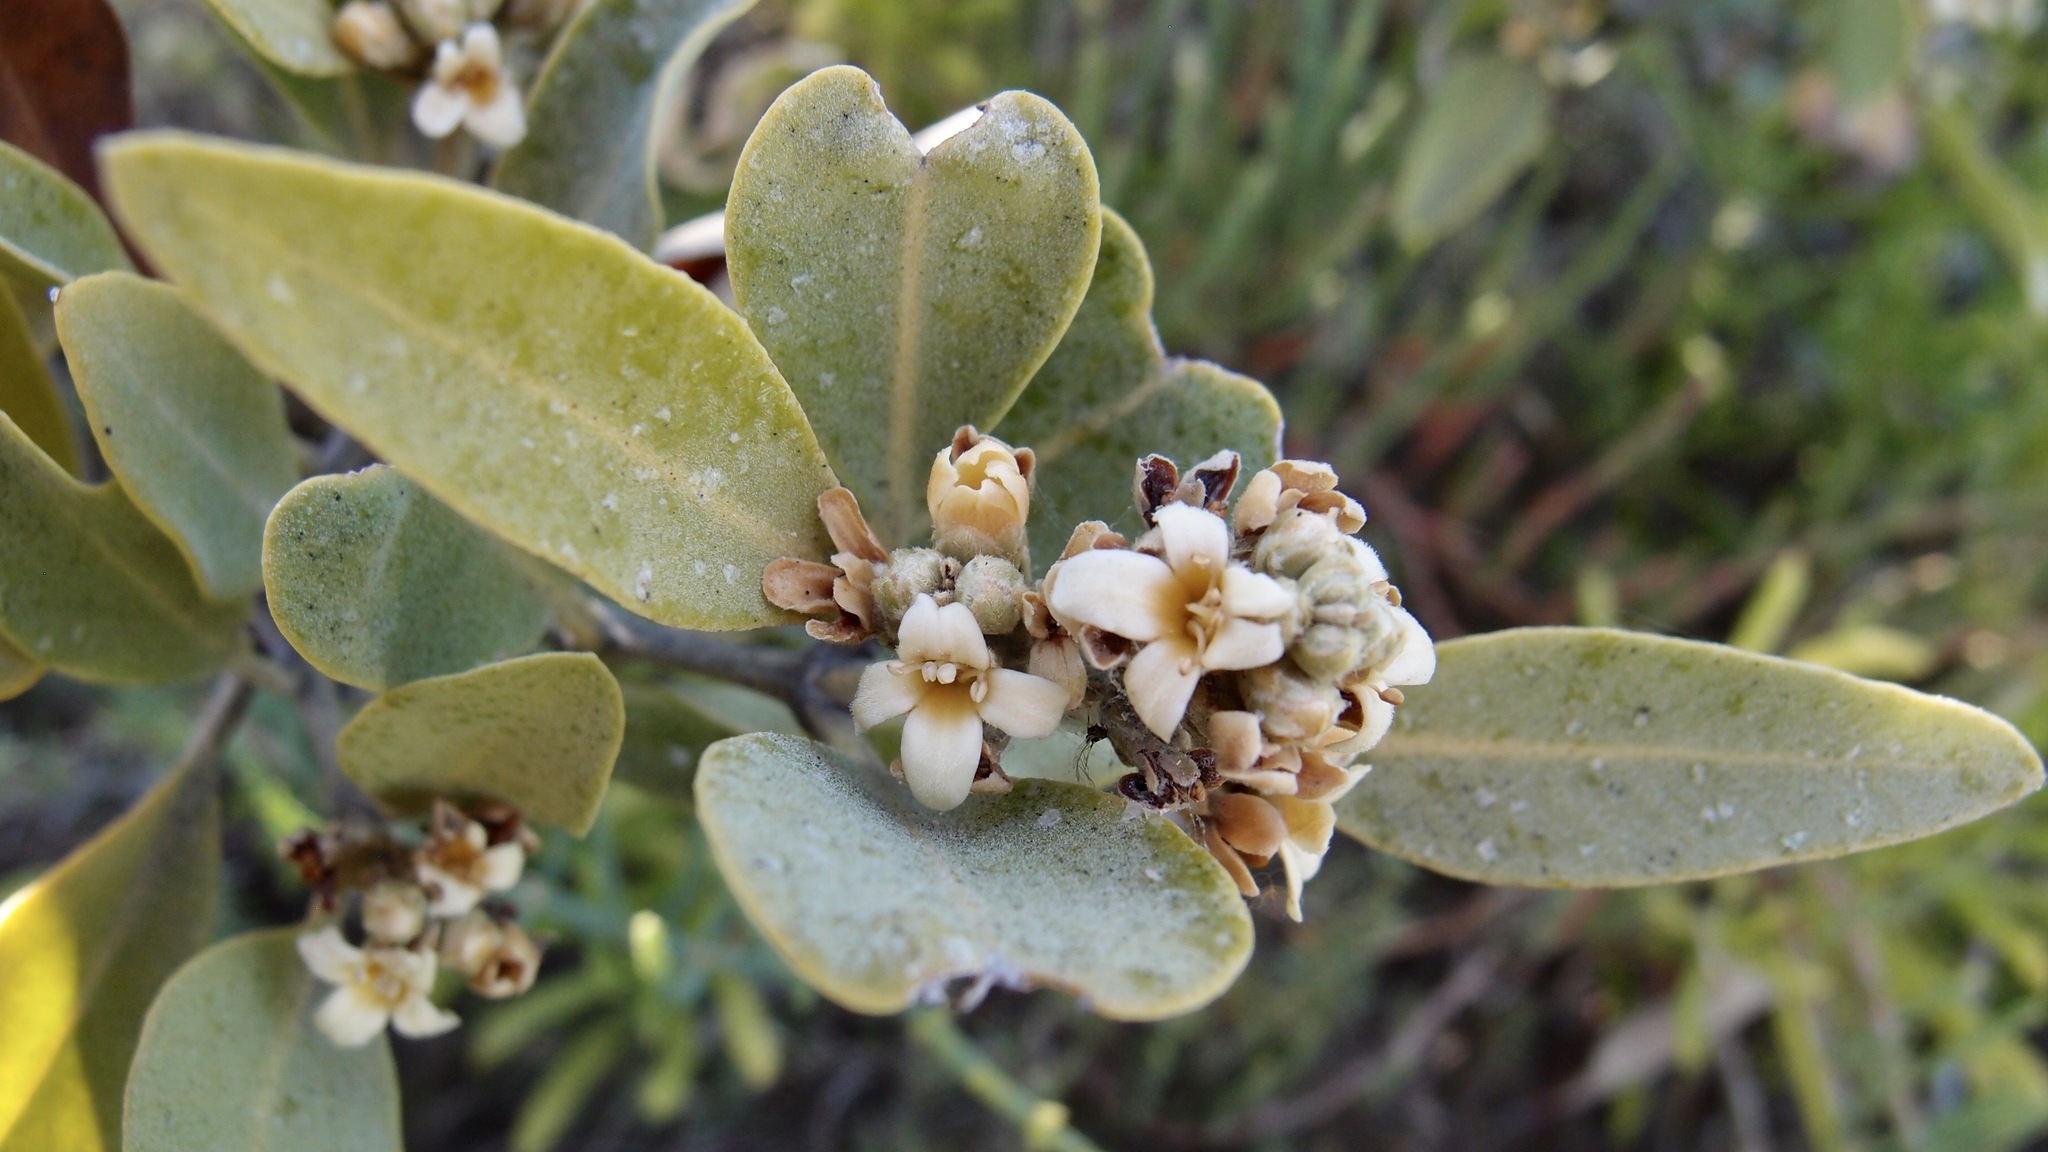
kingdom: Plantae
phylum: Tracheophyta
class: Magnoliopsida
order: Lamiales
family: Acanthaceae
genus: Avicennia
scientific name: Avicennia germinans
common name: Black mangrove
